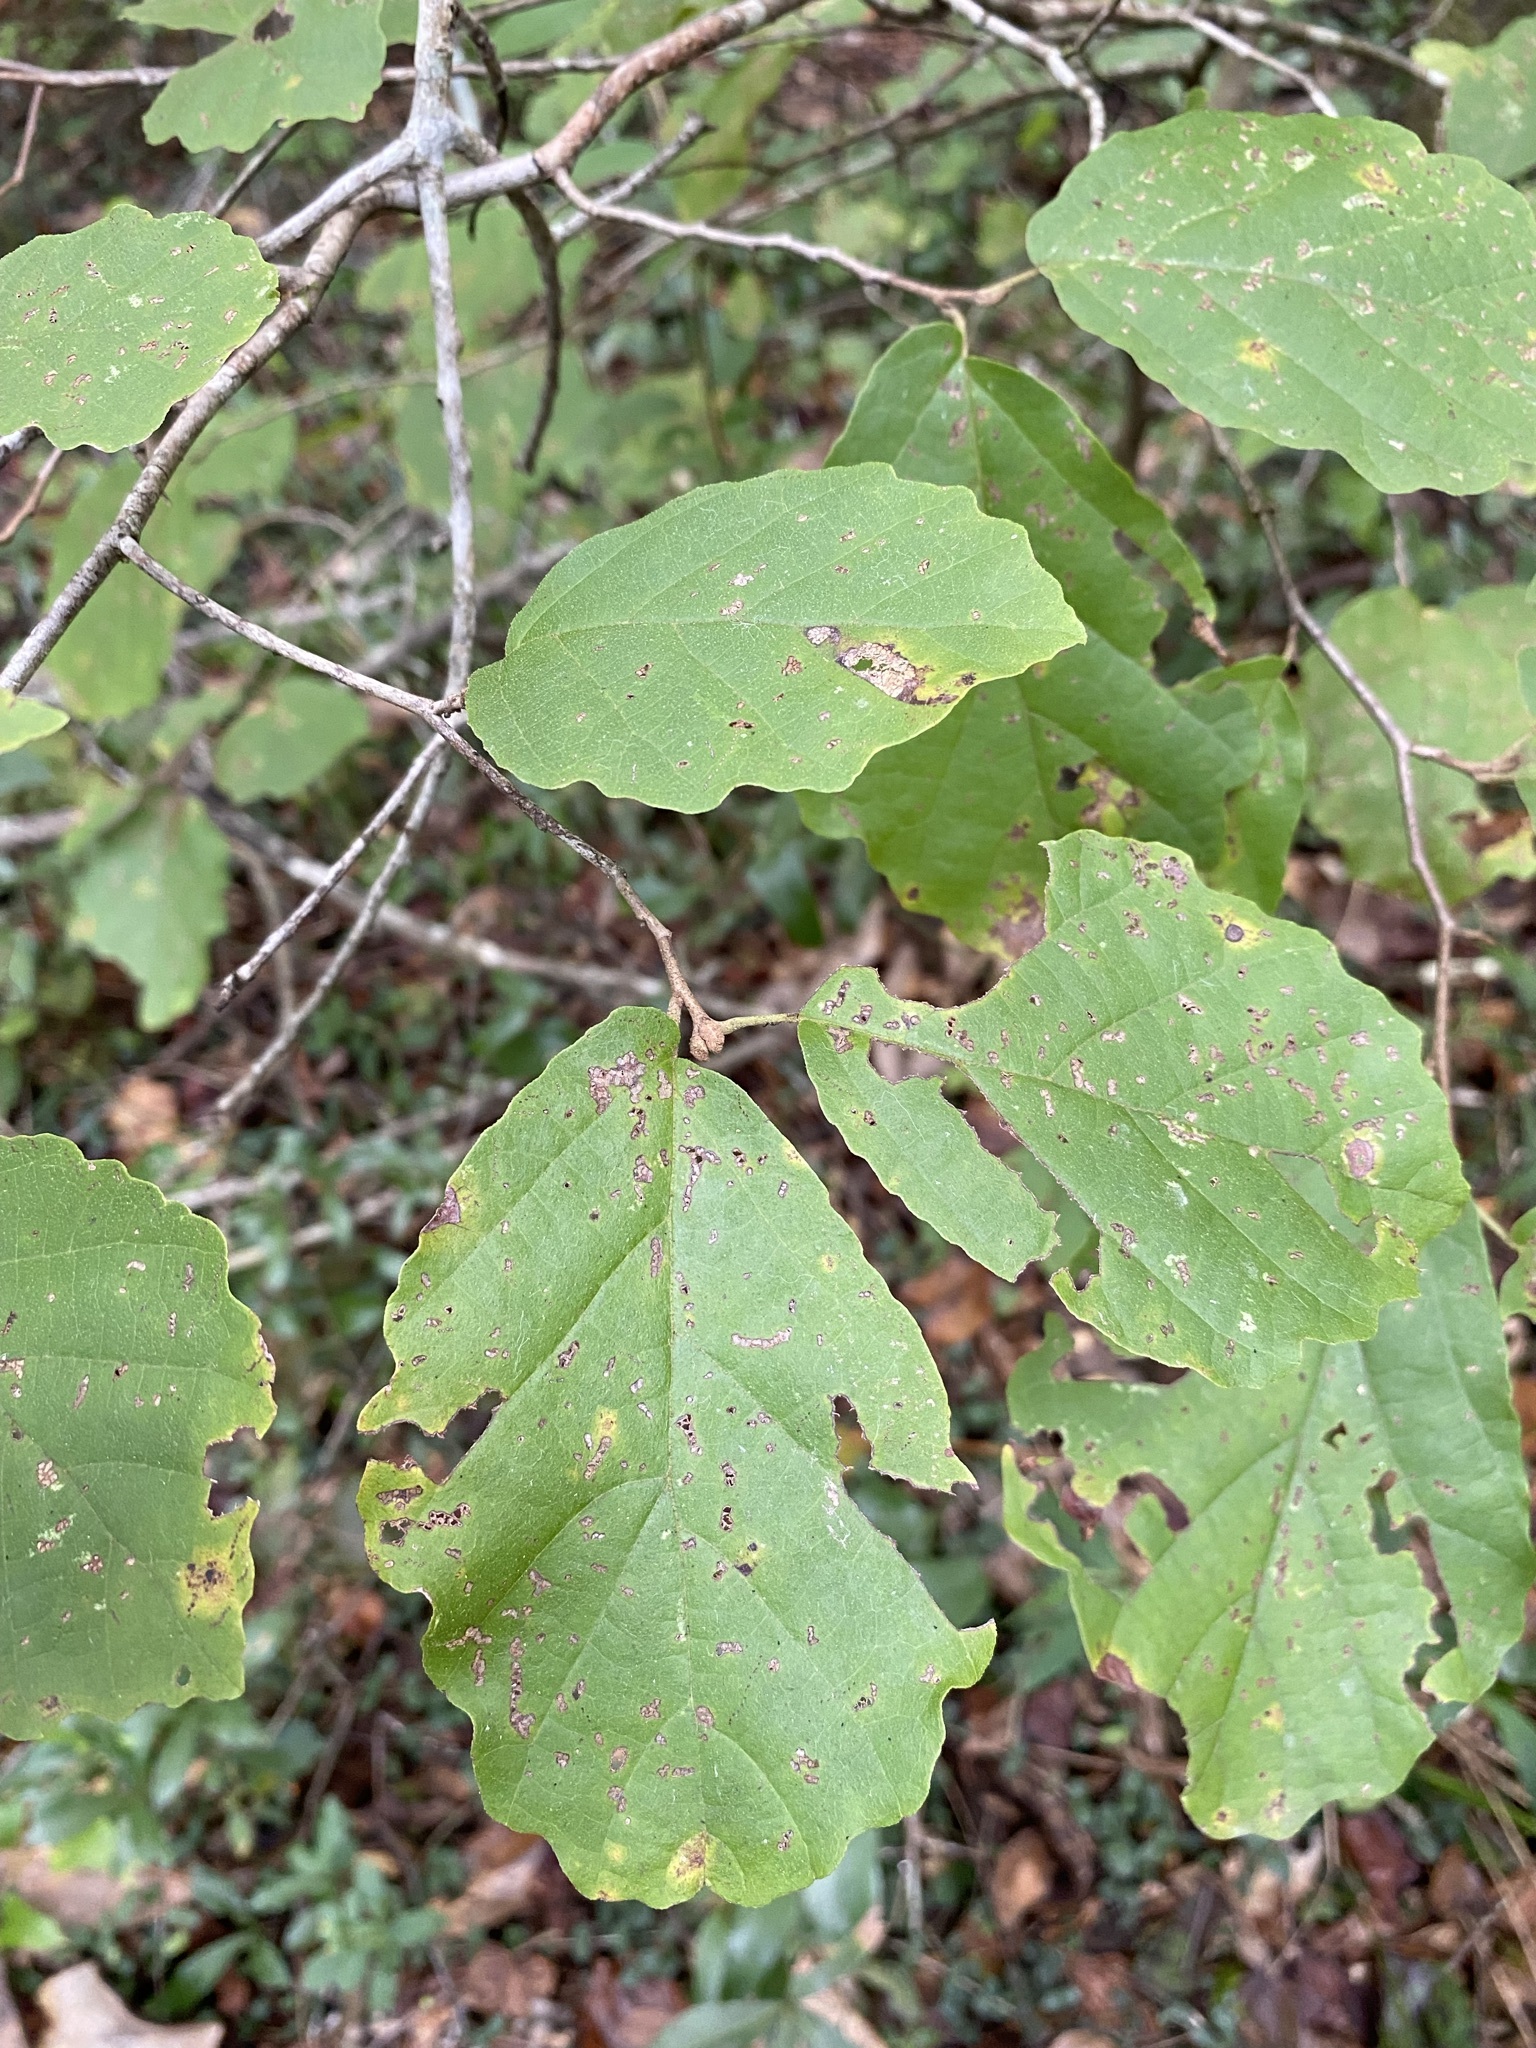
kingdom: Plantae
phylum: Tracheophyta
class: Magnoliopsida
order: Saxifragales
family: Hamamelidaceae
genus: Hamamelis
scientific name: Hamamelis virginiana
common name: Witch-hazel
